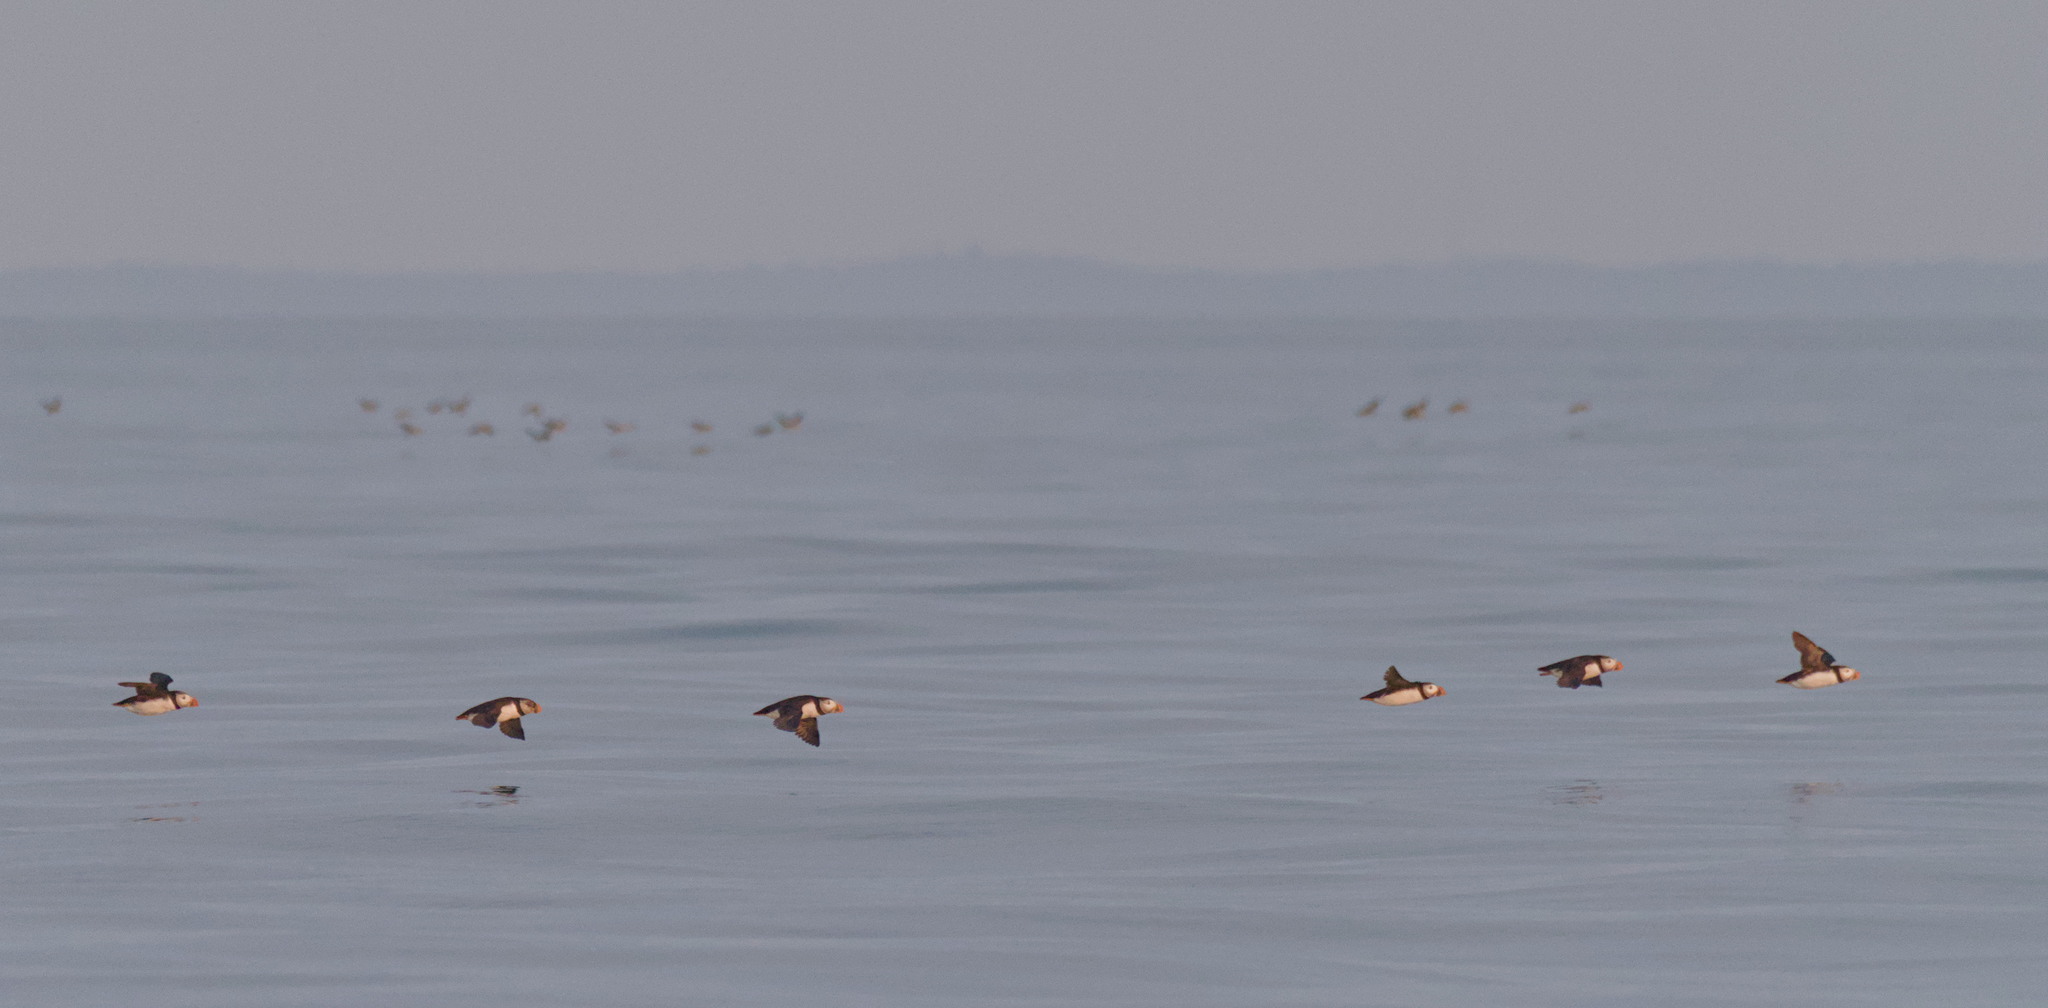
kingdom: Animalia
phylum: Chordata
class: Aves
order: Charadriiformes
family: Alcidae
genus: Fratercula
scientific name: Fratercula arctica
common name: Atlantic puffin
